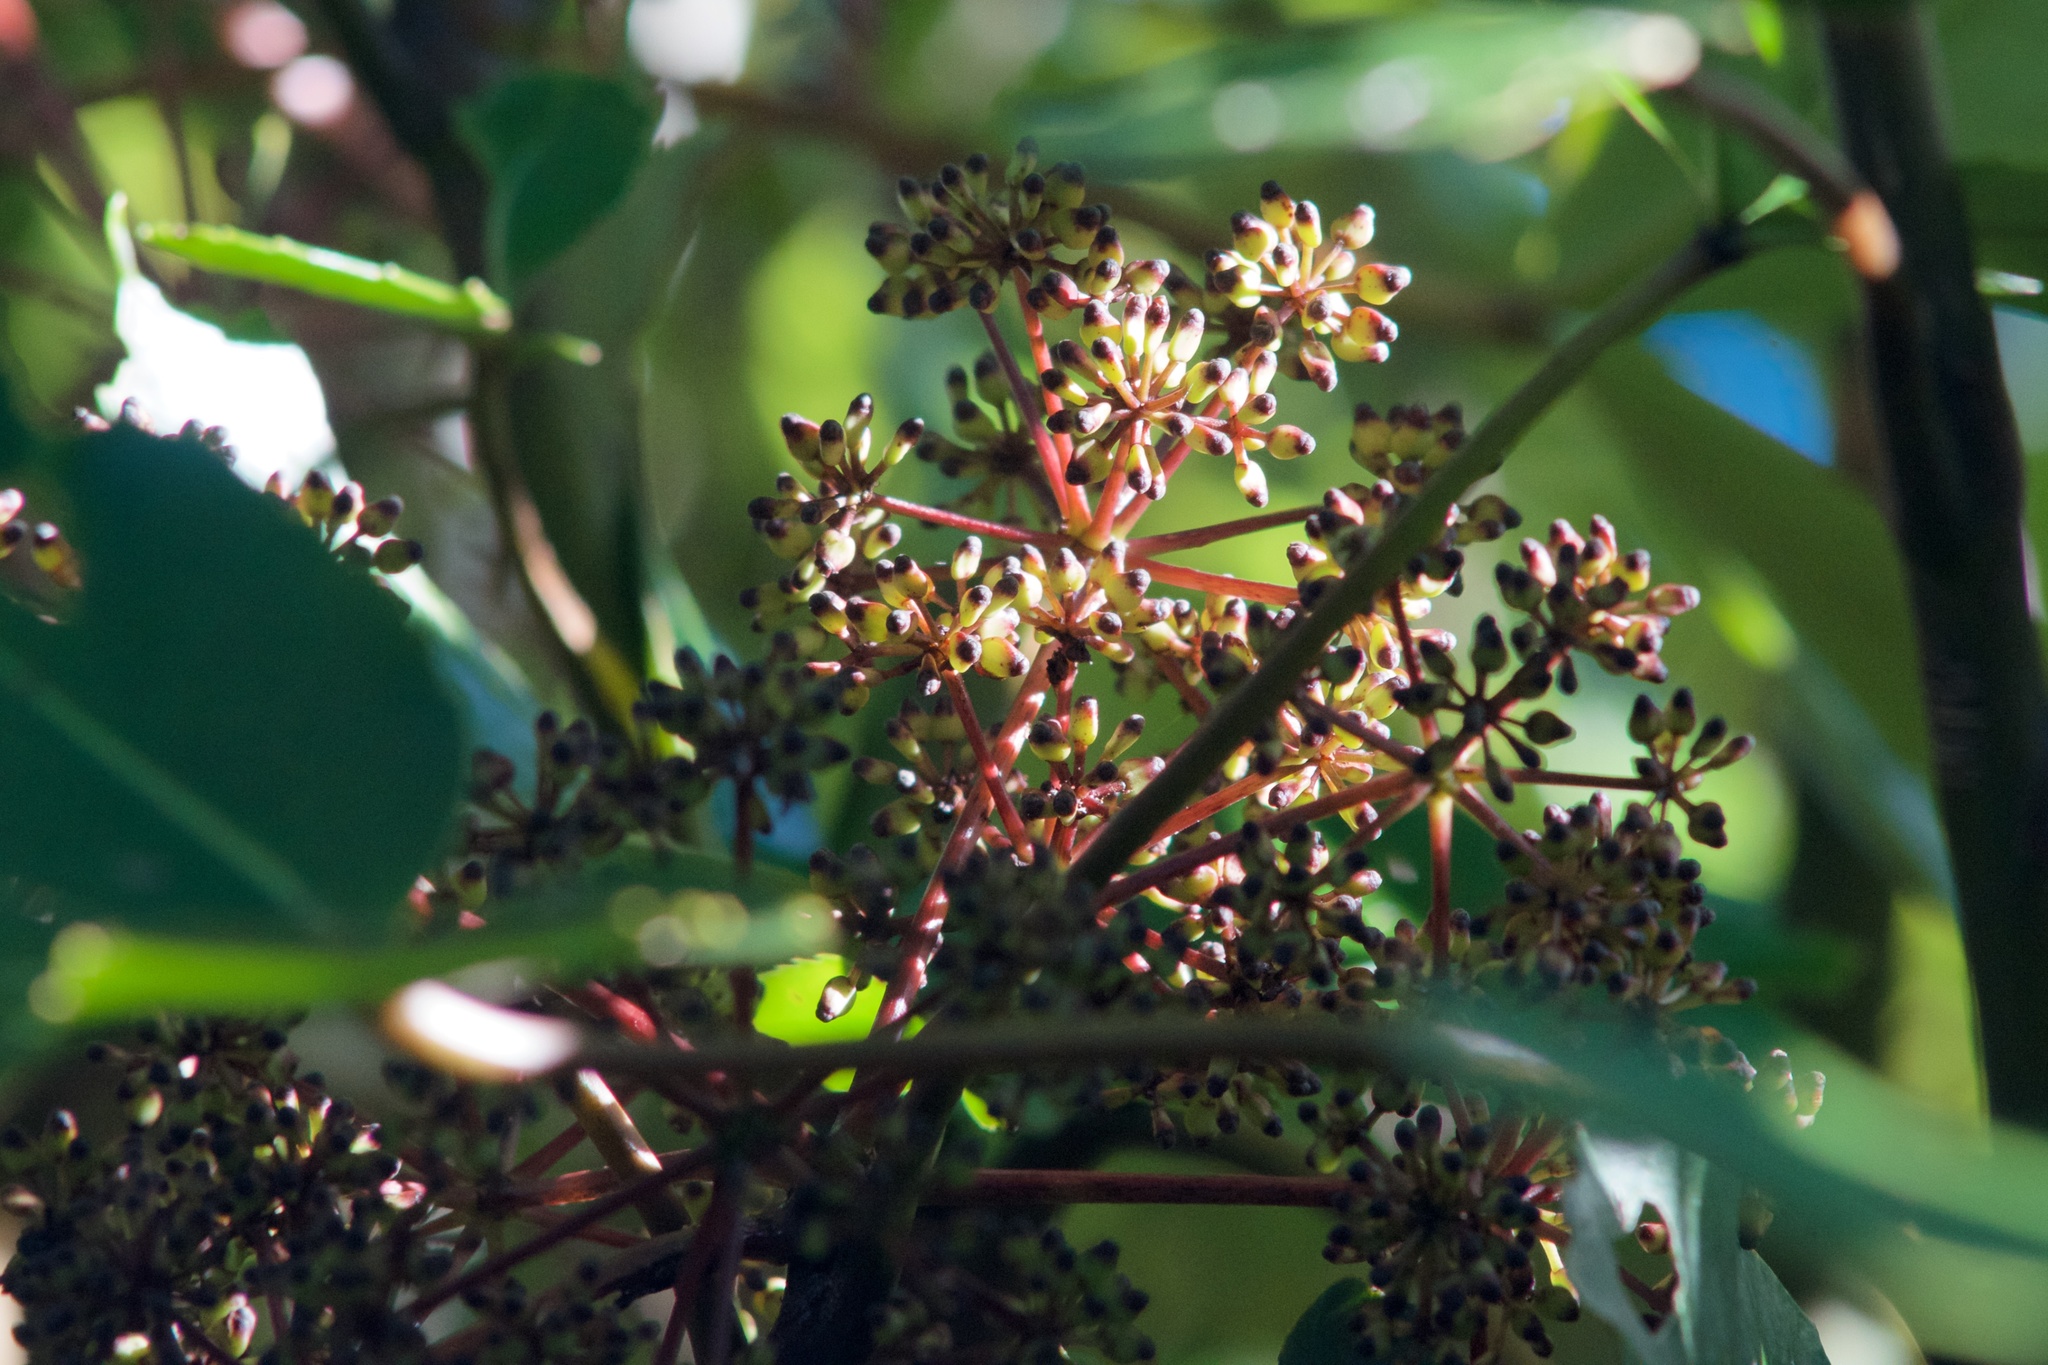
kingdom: Plantae
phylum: Tracheophyta
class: Magnoliopsida
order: Apiales
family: Araliaceae
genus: Neopanax
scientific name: Neopanax arboreus
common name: Five-fingers
